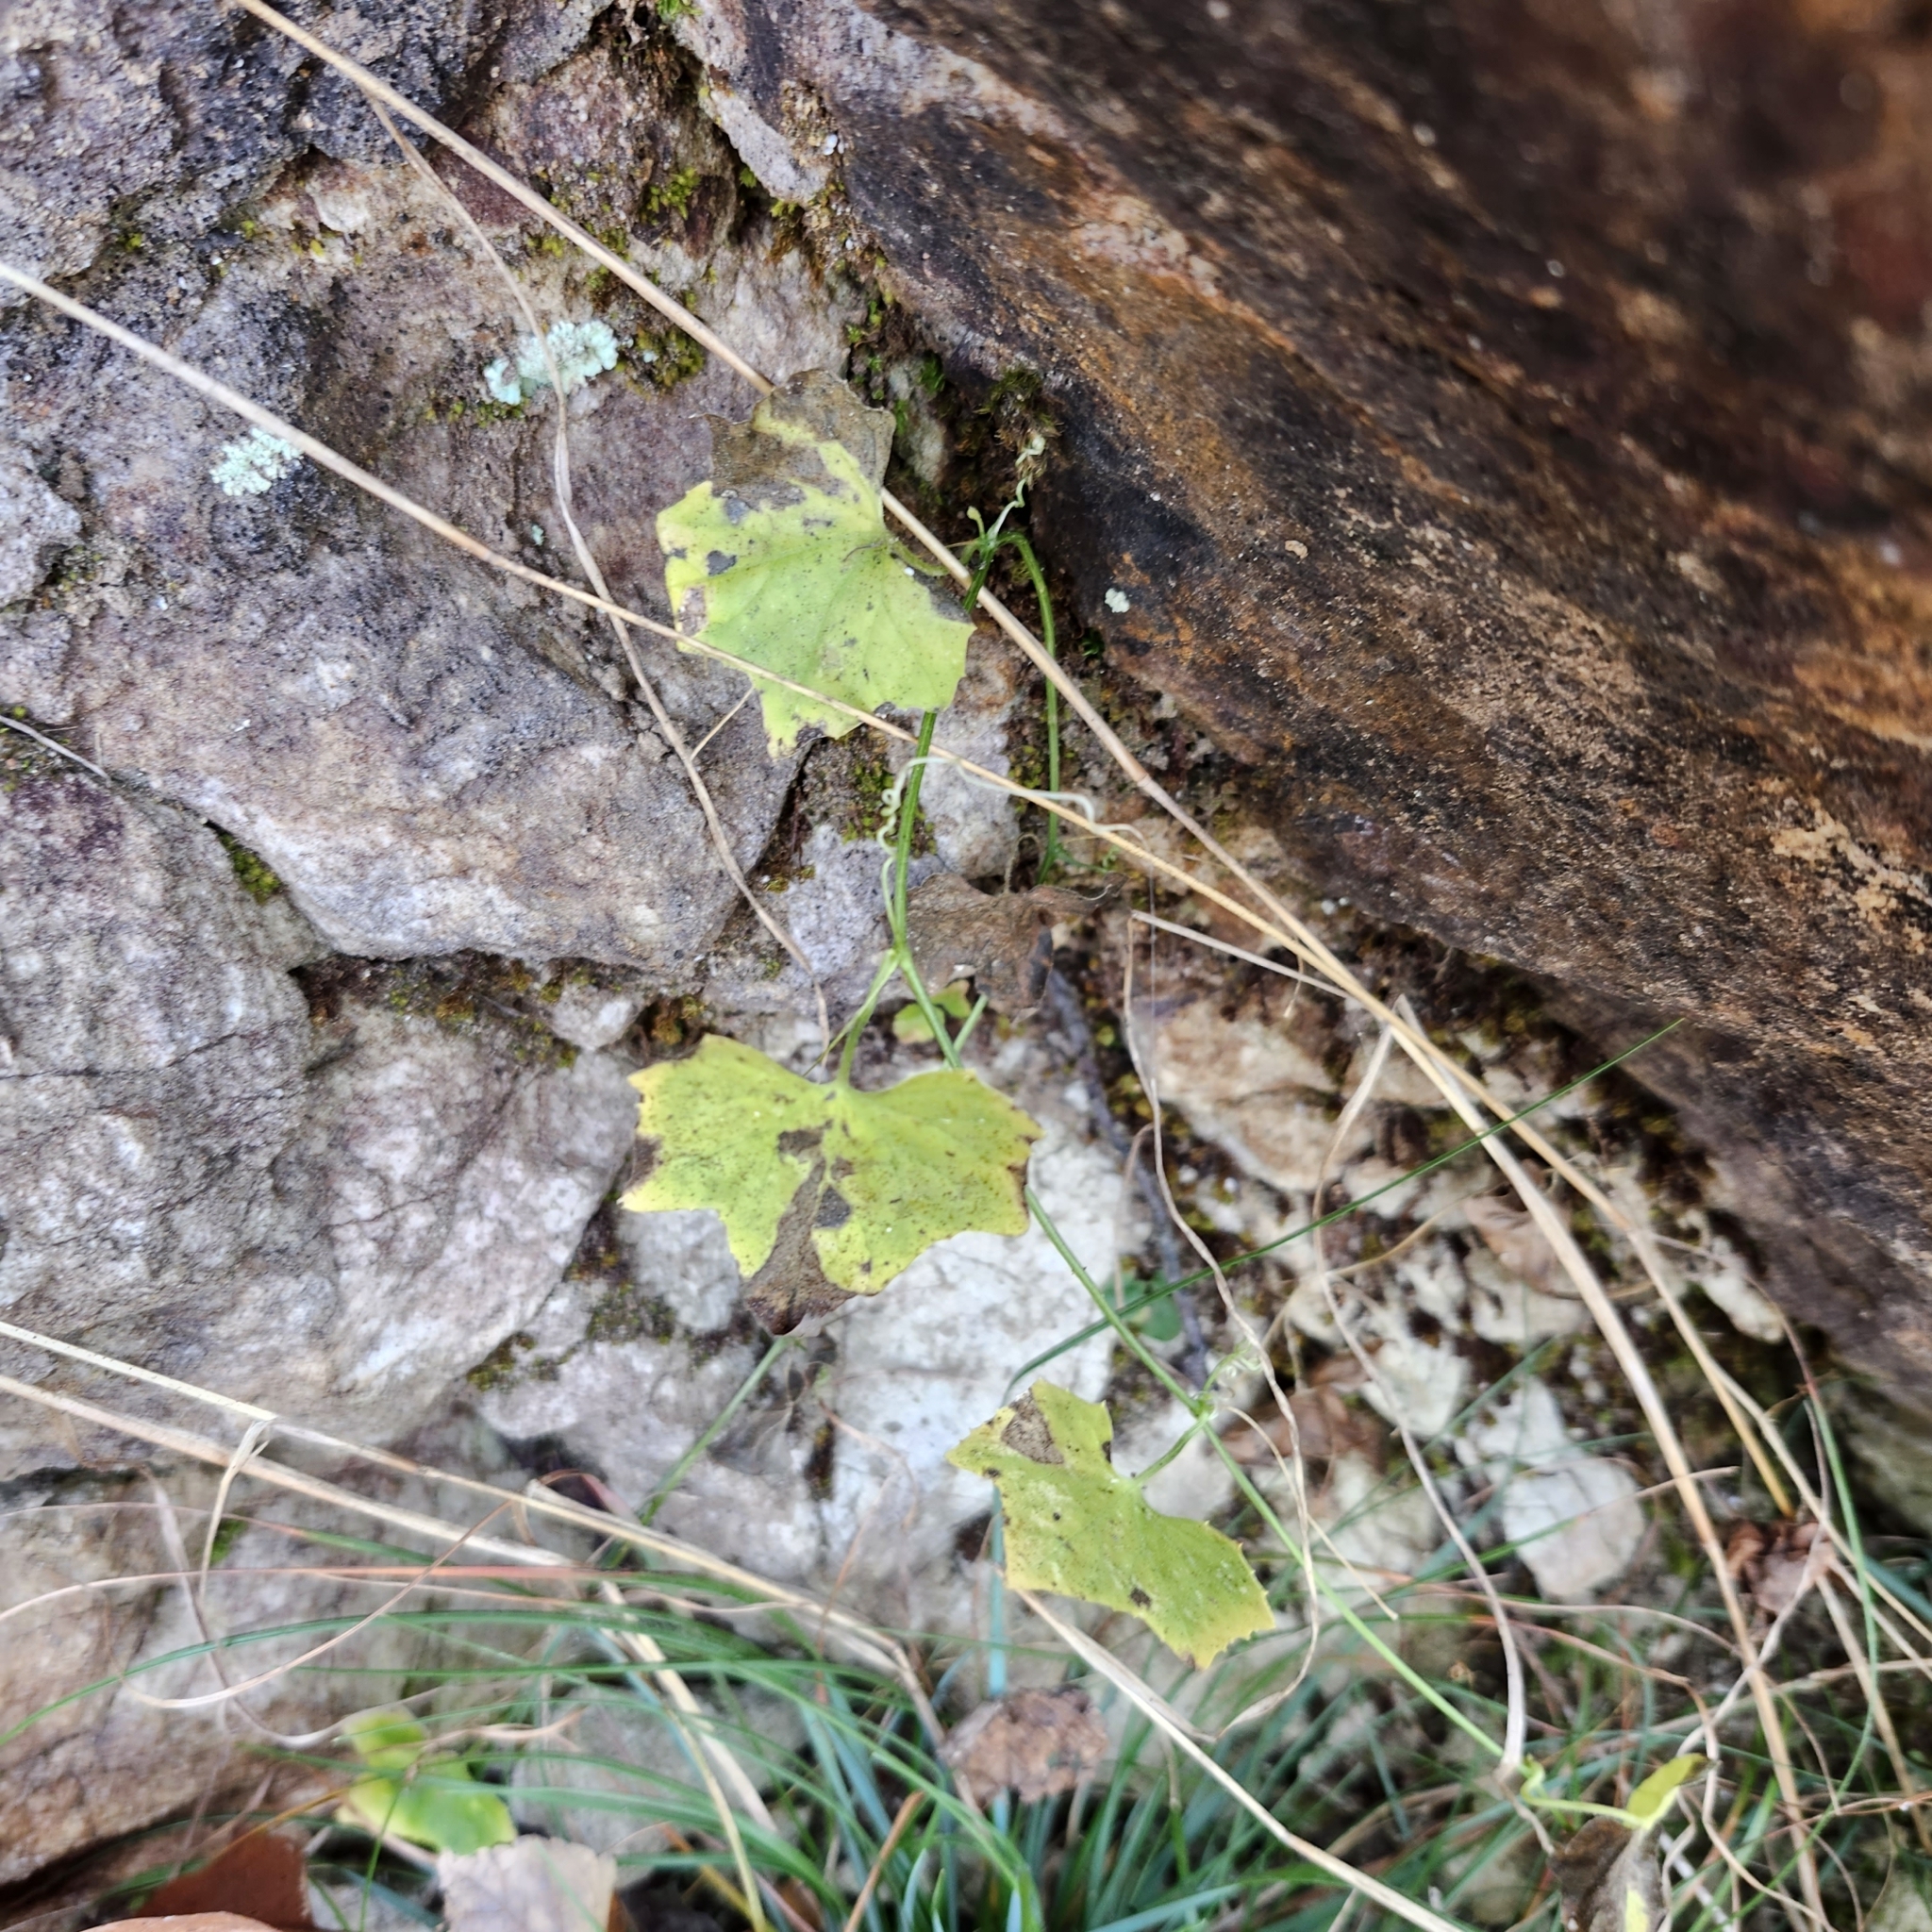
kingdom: Plantae
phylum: Tracheophyta
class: Magnoliopsida
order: Cucurbitales
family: Cucurbitaceae
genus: Melothria
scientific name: Melothria pendula
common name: Creeping-cucumber
